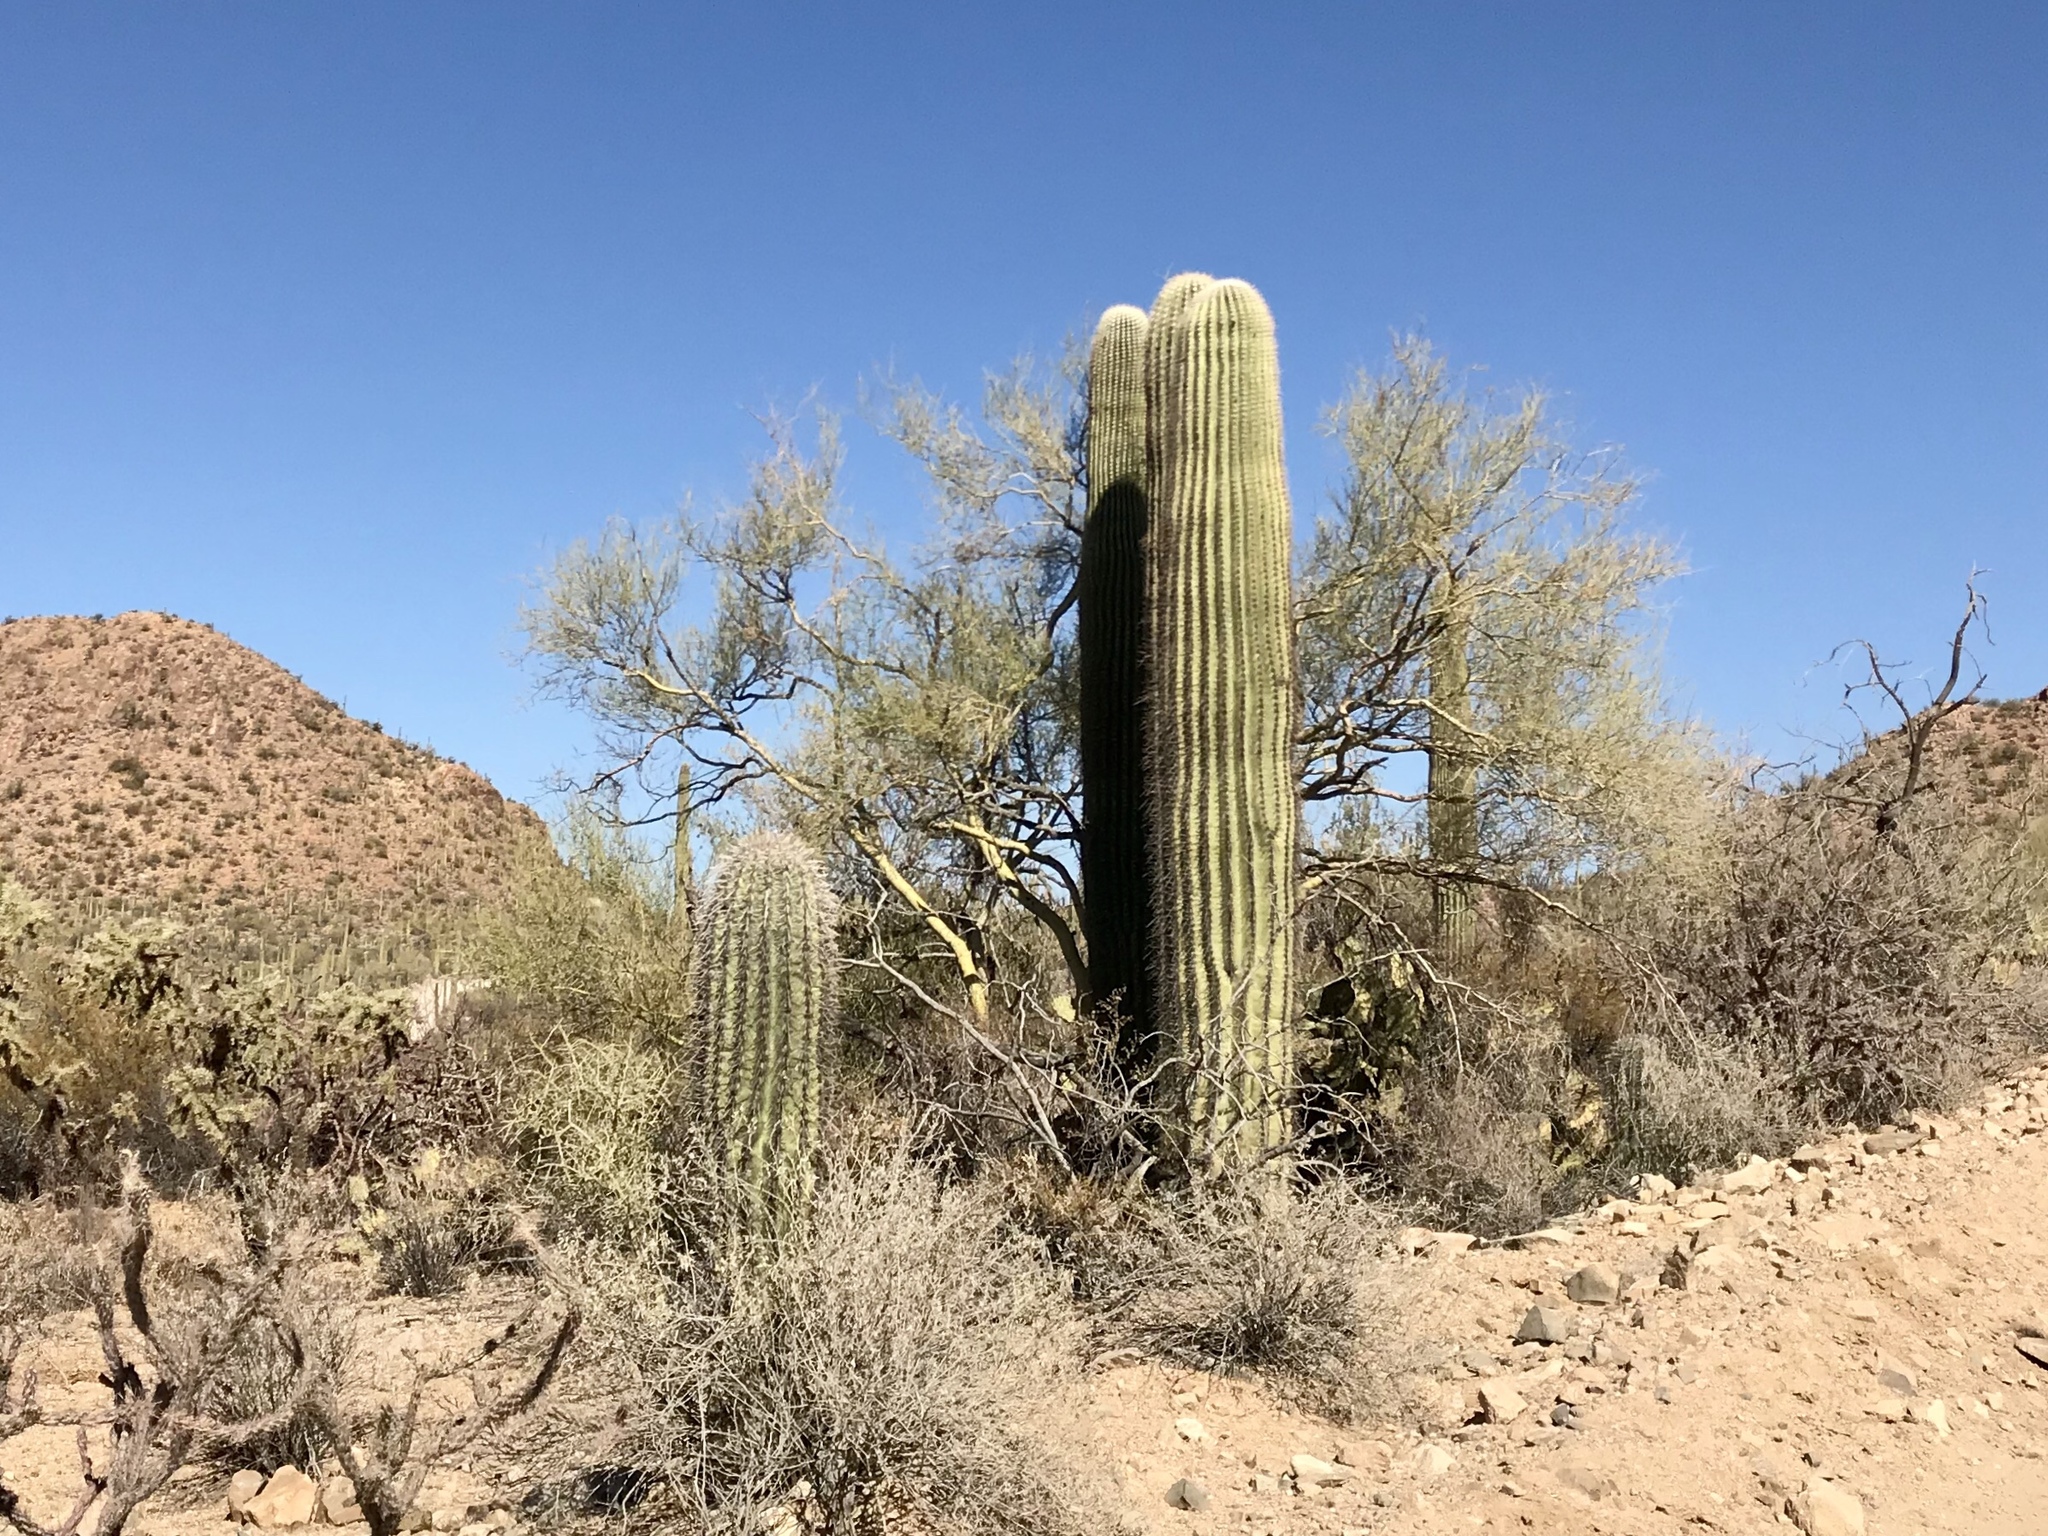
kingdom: Plantae
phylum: Tracheophyta
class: Magnoliopsida
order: Caryophyllales
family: Cactaceae
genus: Carnegiea
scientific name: Carnegiea gigantea
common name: Saguaro
